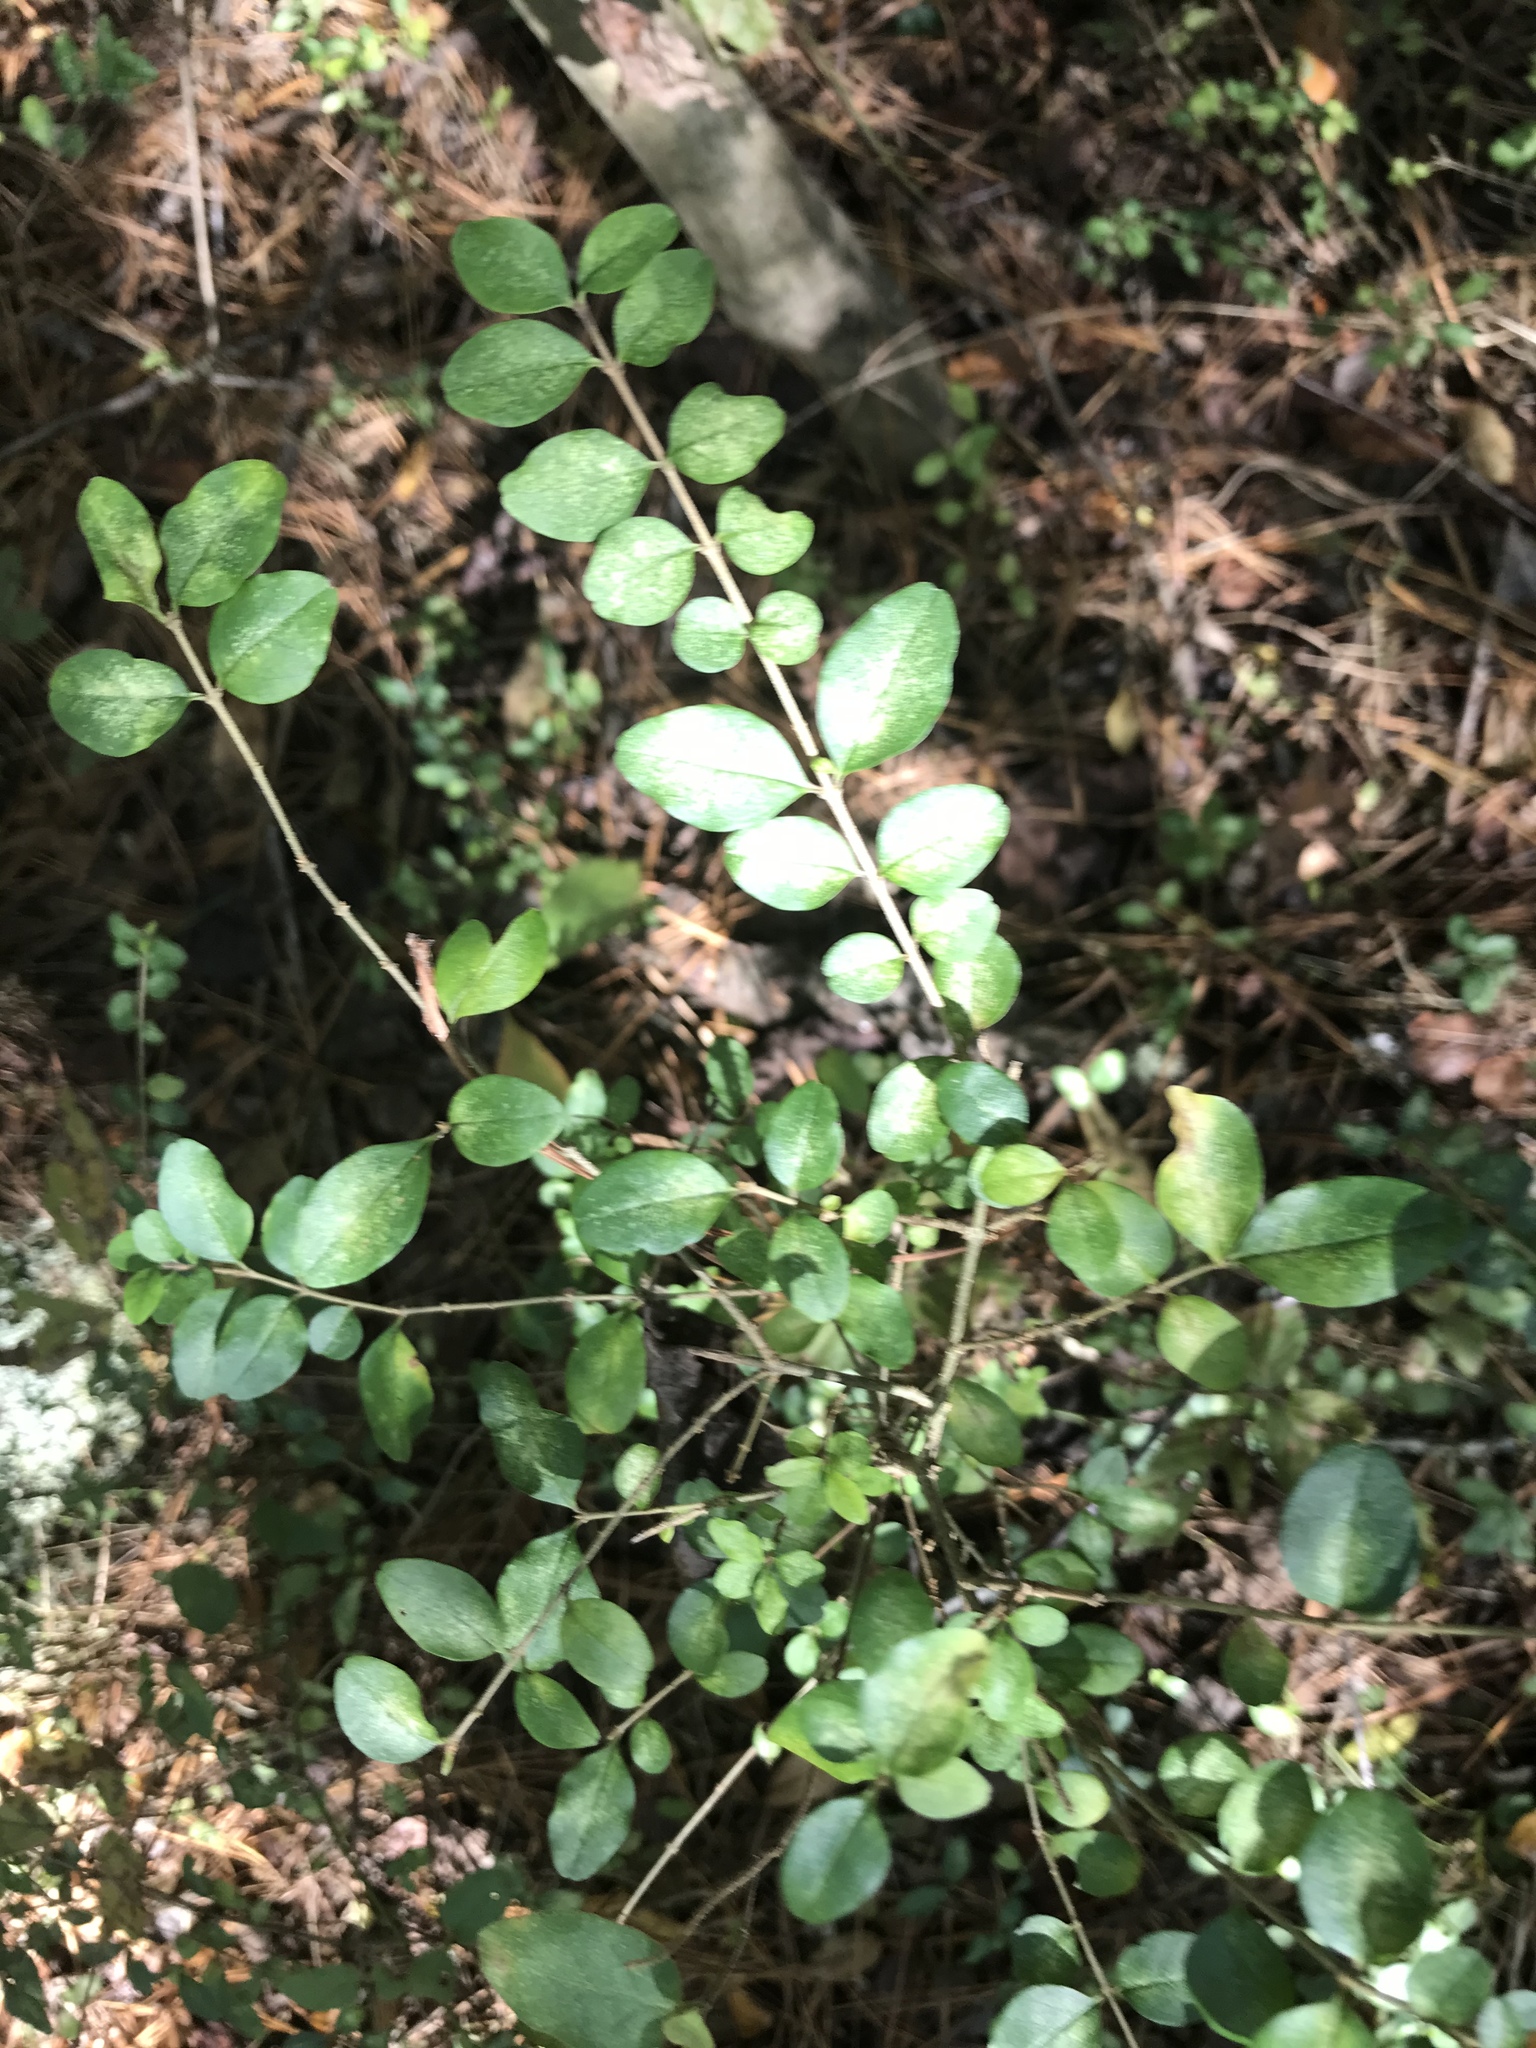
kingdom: Plantae
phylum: Tracheophyta
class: Magnoliopsida
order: Lamiales
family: Oleaceae
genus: Ligustrum
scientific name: Ligustrum sinense
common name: Chinese privet
